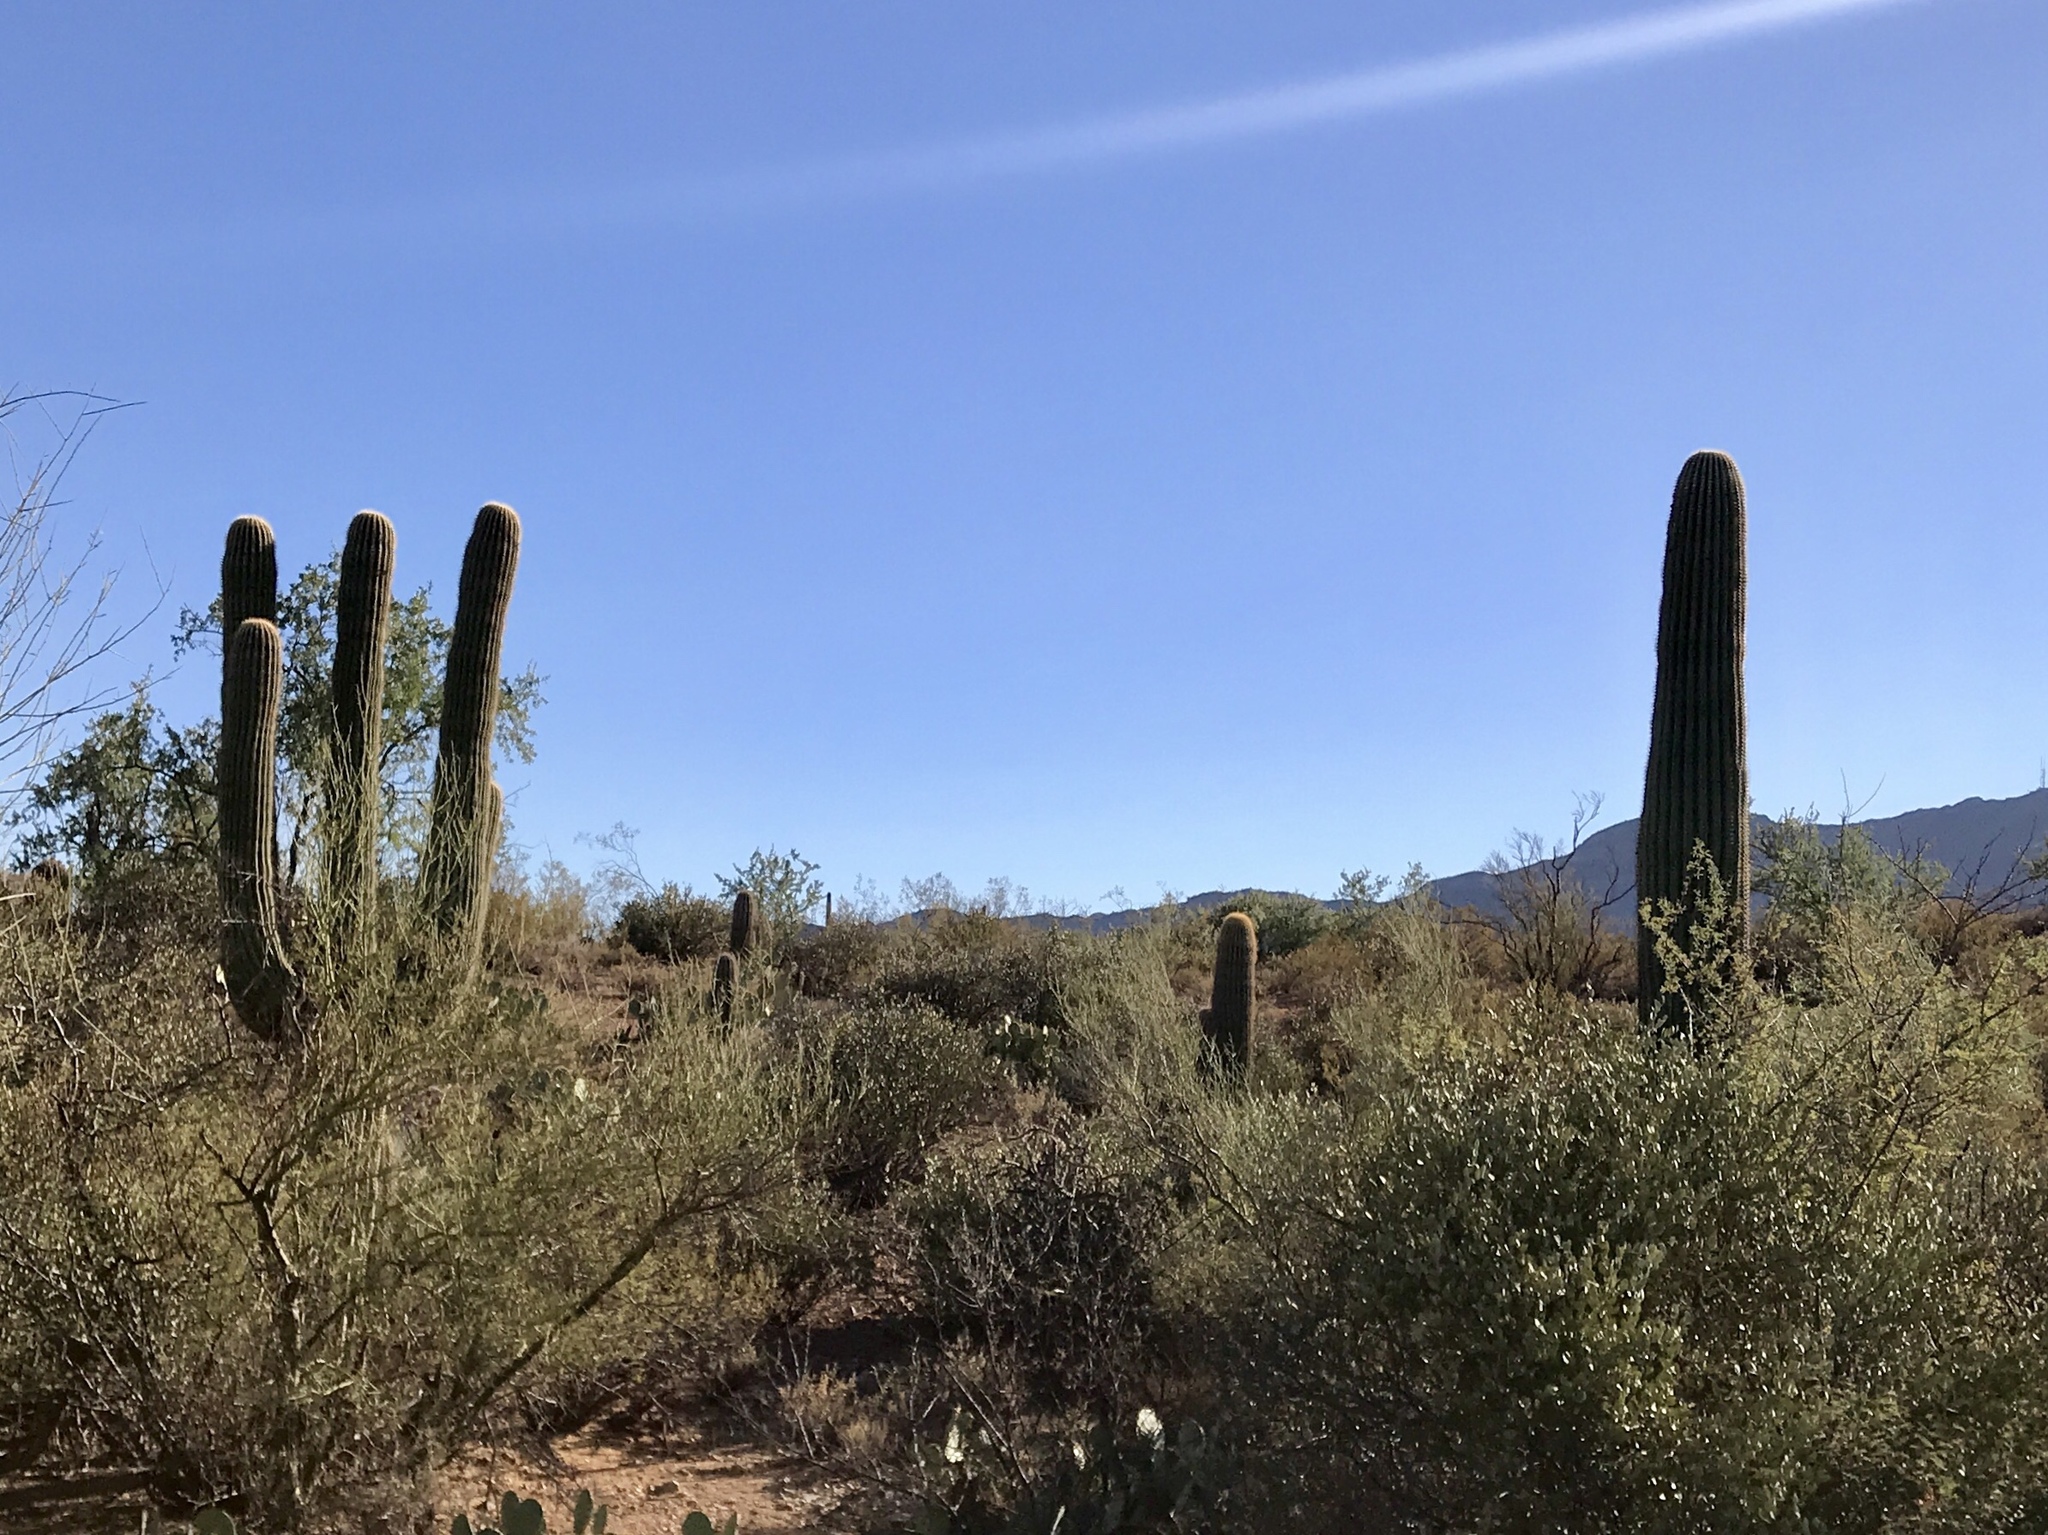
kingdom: Plantae
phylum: Tracheophyta
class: Magnoliopsida
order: Caryophyllales
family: Cactaceae
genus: Carnegiea
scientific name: Carnegiea gigantea
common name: Saguaro
